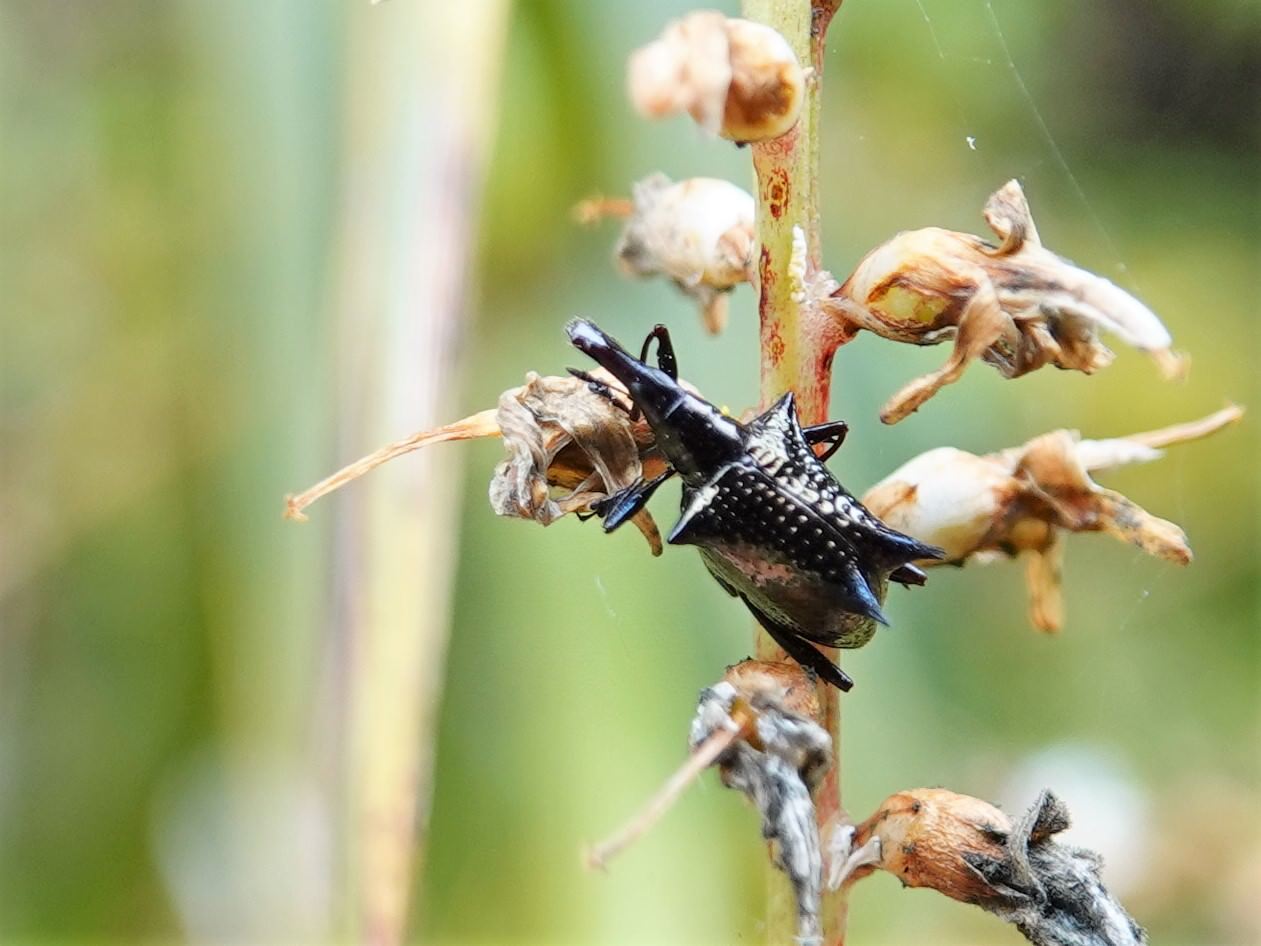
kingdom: Animalia
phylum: Arthropoda
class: Insecta
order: Coleoptera
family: Curculionidae
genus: Scolopterus
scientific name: Scolopterus aequus
